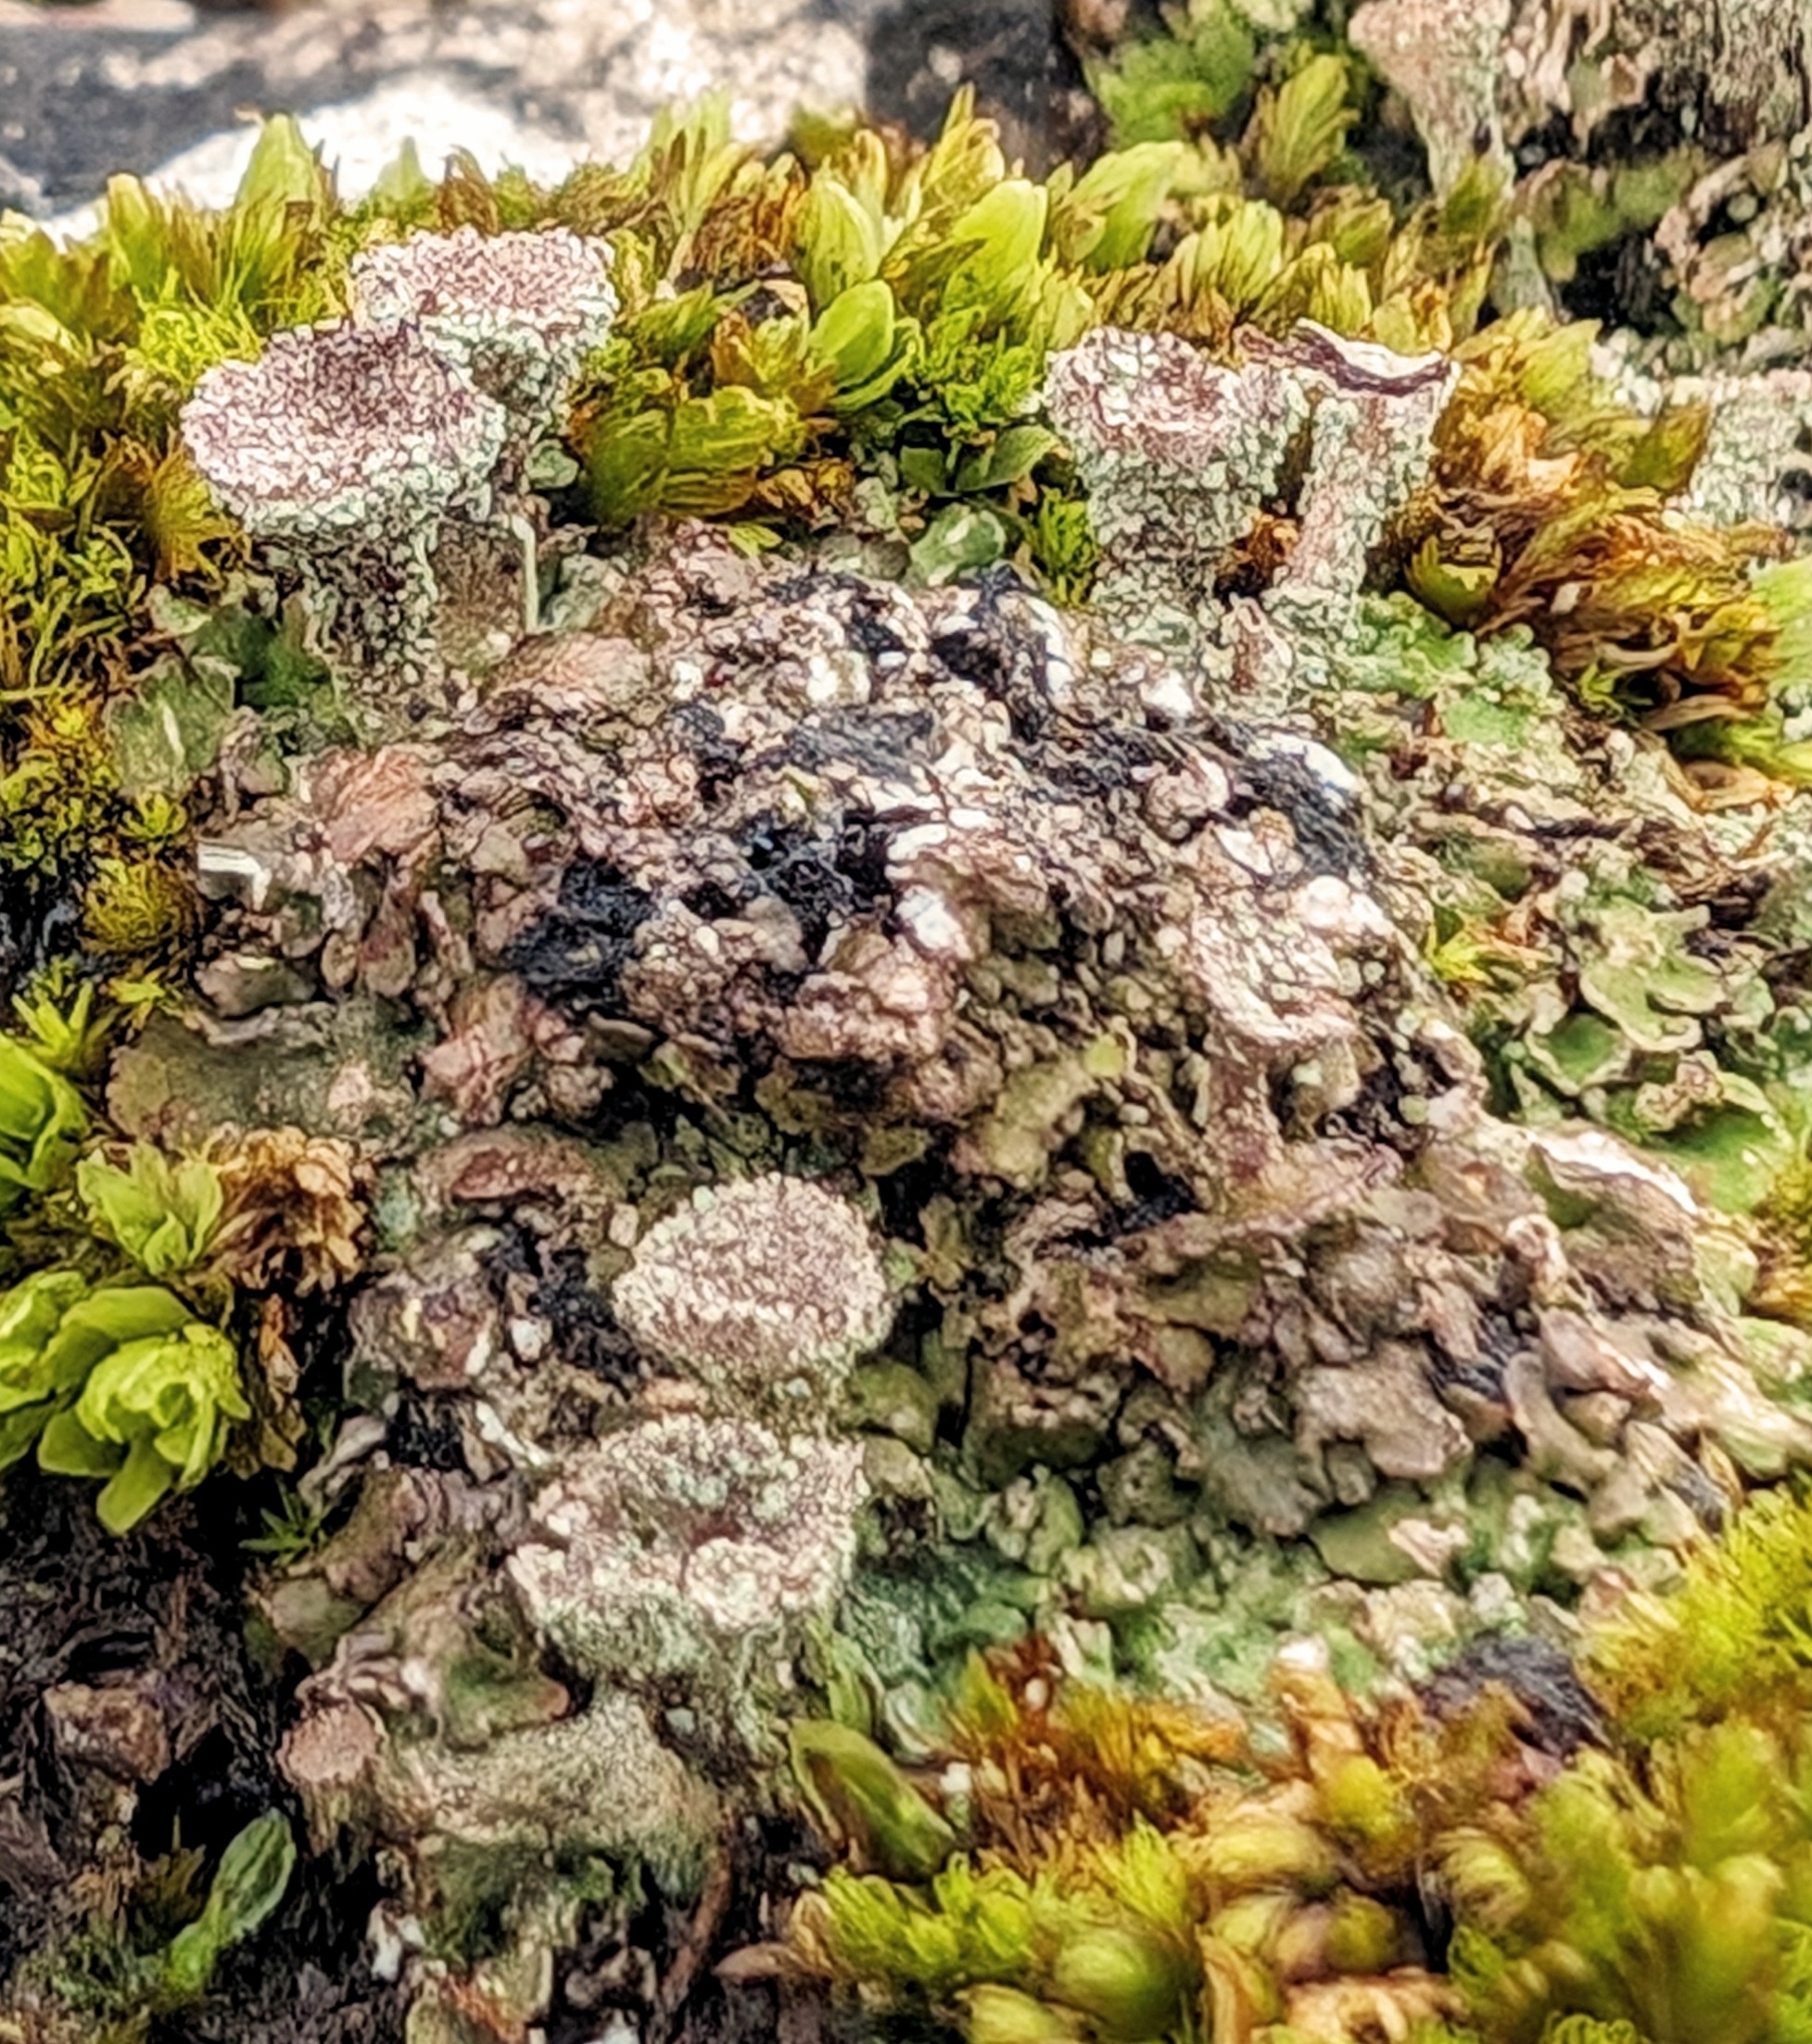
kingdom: Fungi
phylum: Ascomycota
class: Lecanoromycetes
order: Lecanorales
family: Cladoniaceae
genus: Cladonia
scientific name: Cladonia pocillum
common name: Rosette pixie-cup lichen
